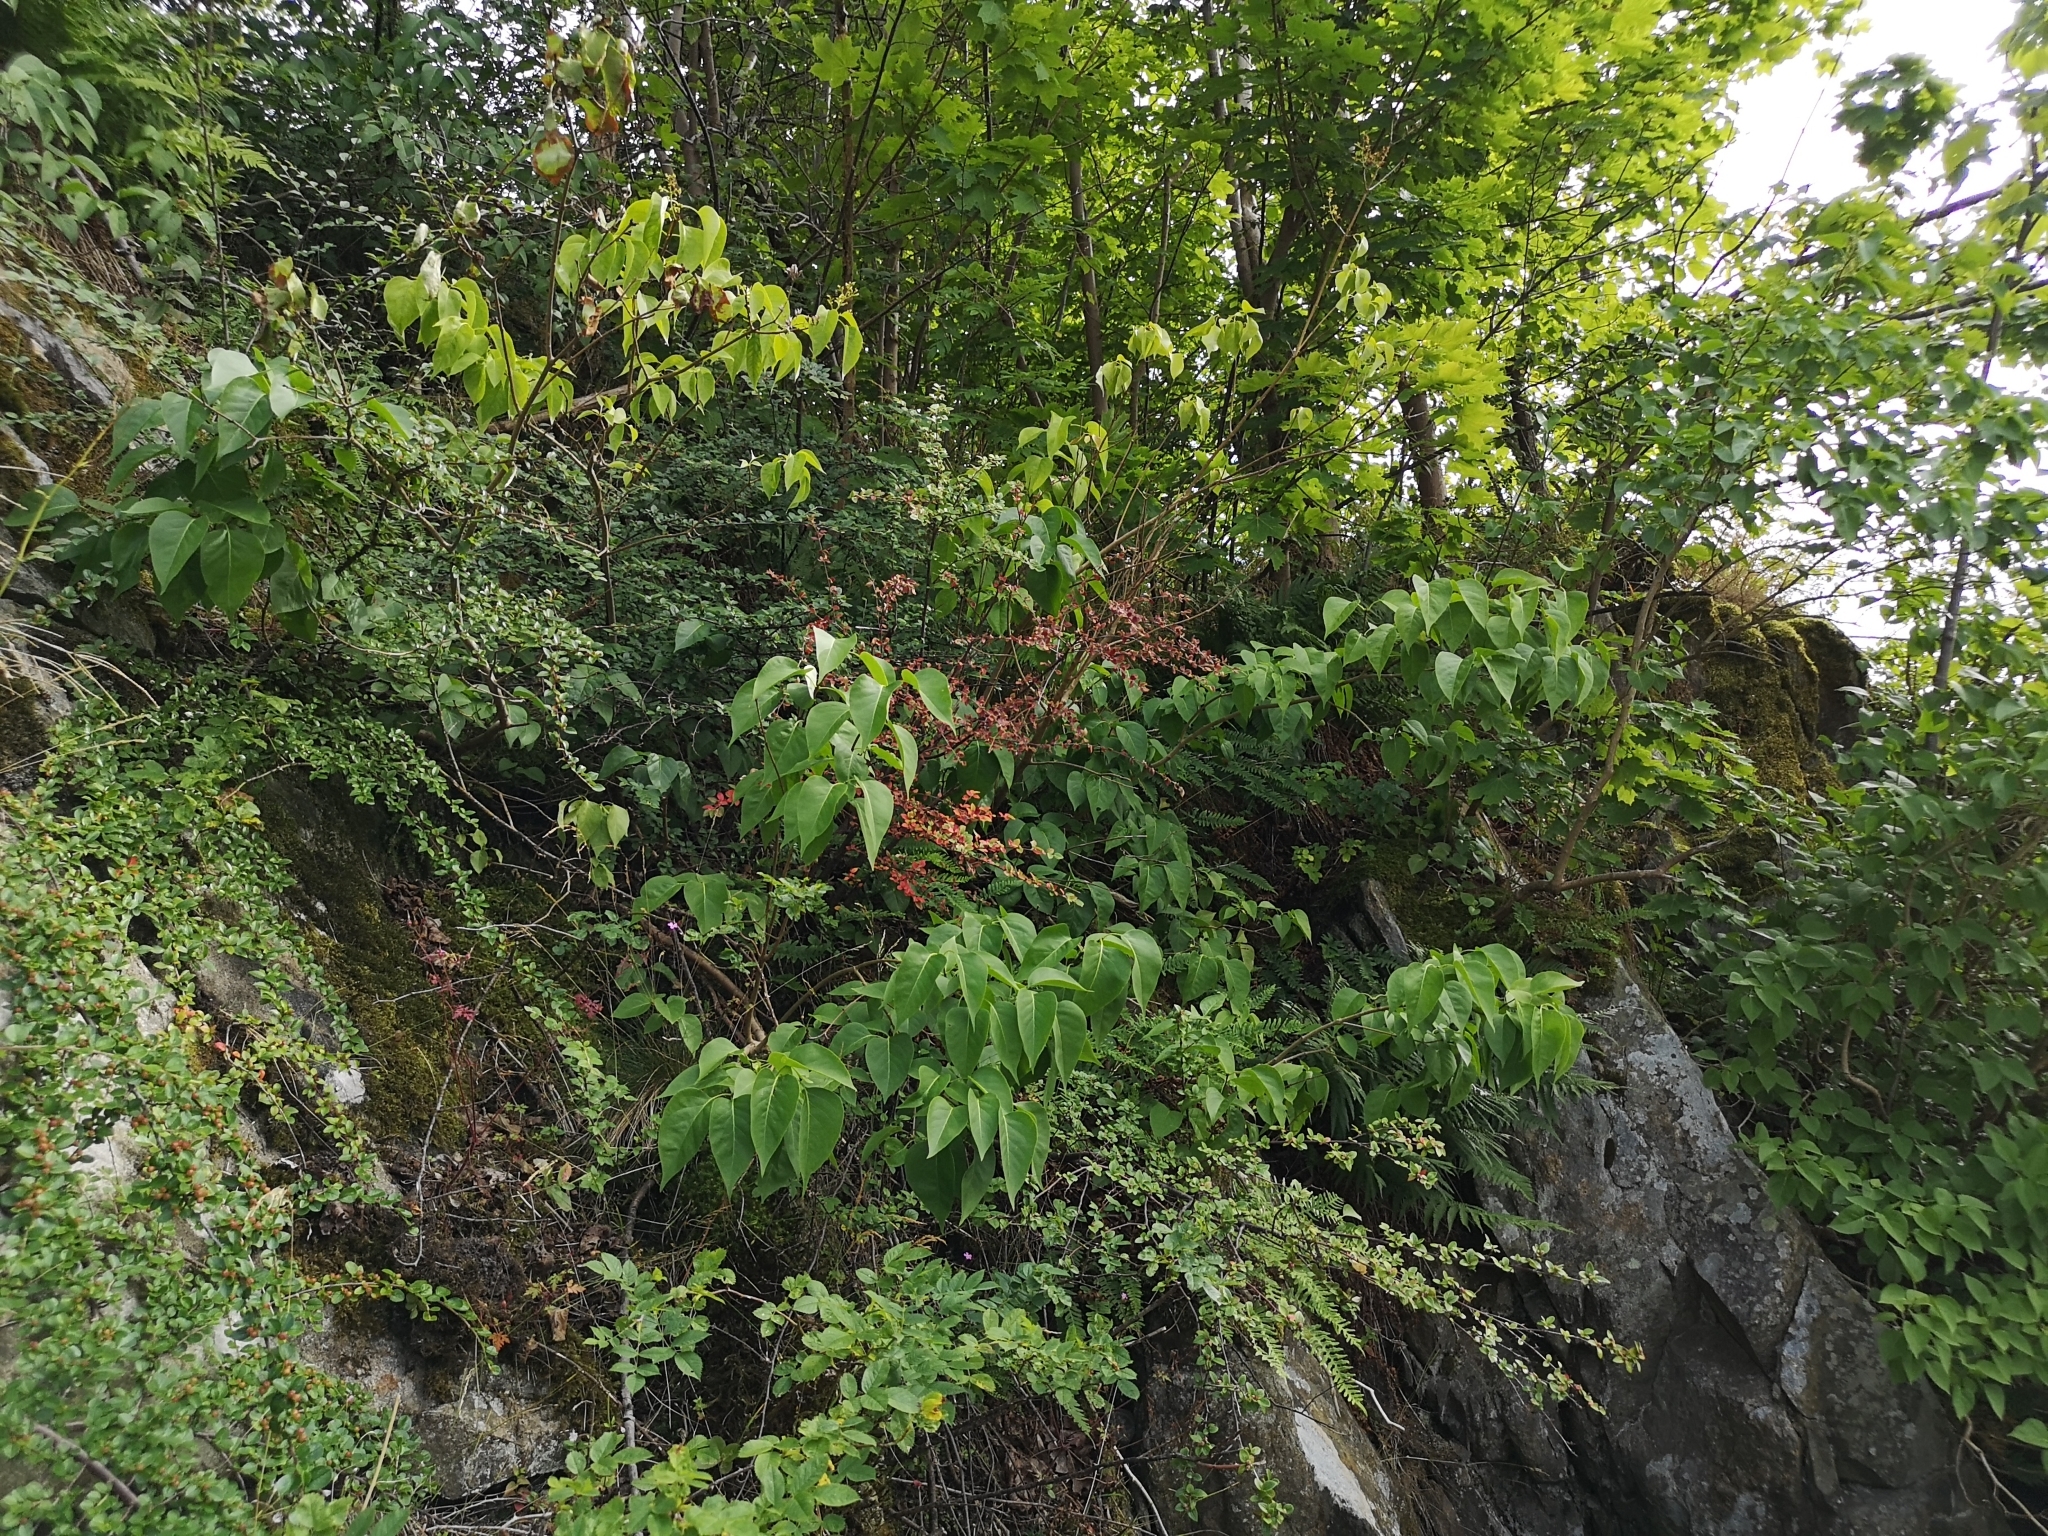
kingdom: Plantae
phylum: Tracheophyta
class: Magnoliopsida
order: Lamiales
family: Oleaceae
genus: Syringa
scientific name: Syringa vulgaris
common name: Common lilac
